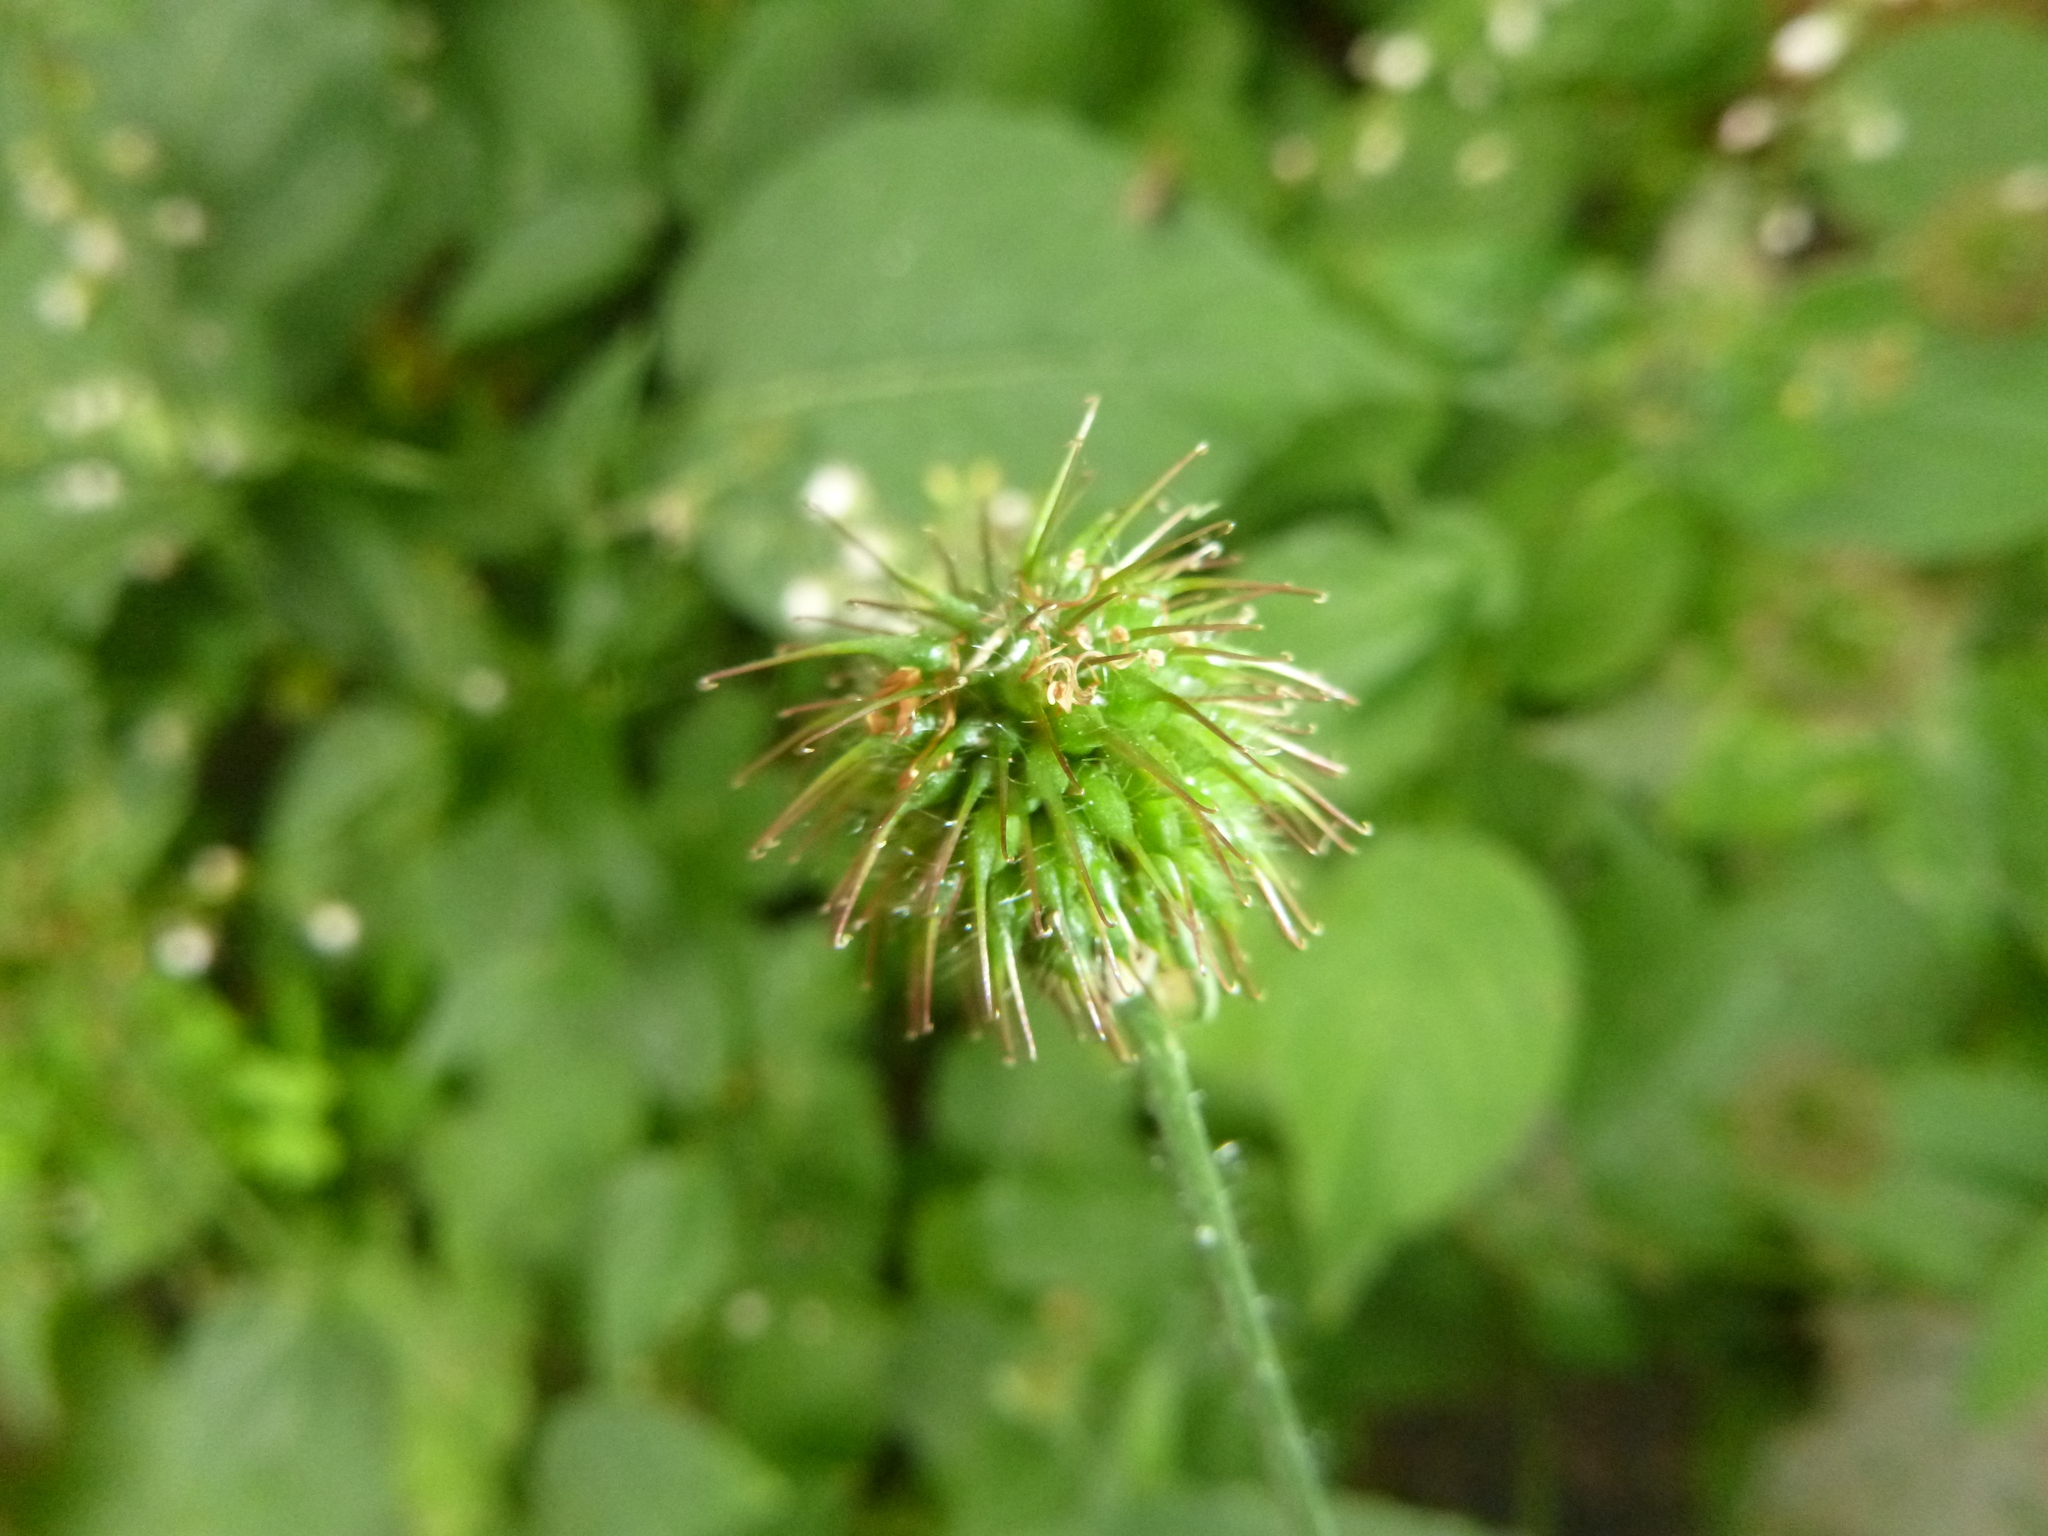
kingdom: Plantae
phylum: Tracheophyta
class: Magnoliopsida
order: Rosales
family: Rosaceae
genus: Geum
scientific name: Geum urbanum
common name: Wood avens
